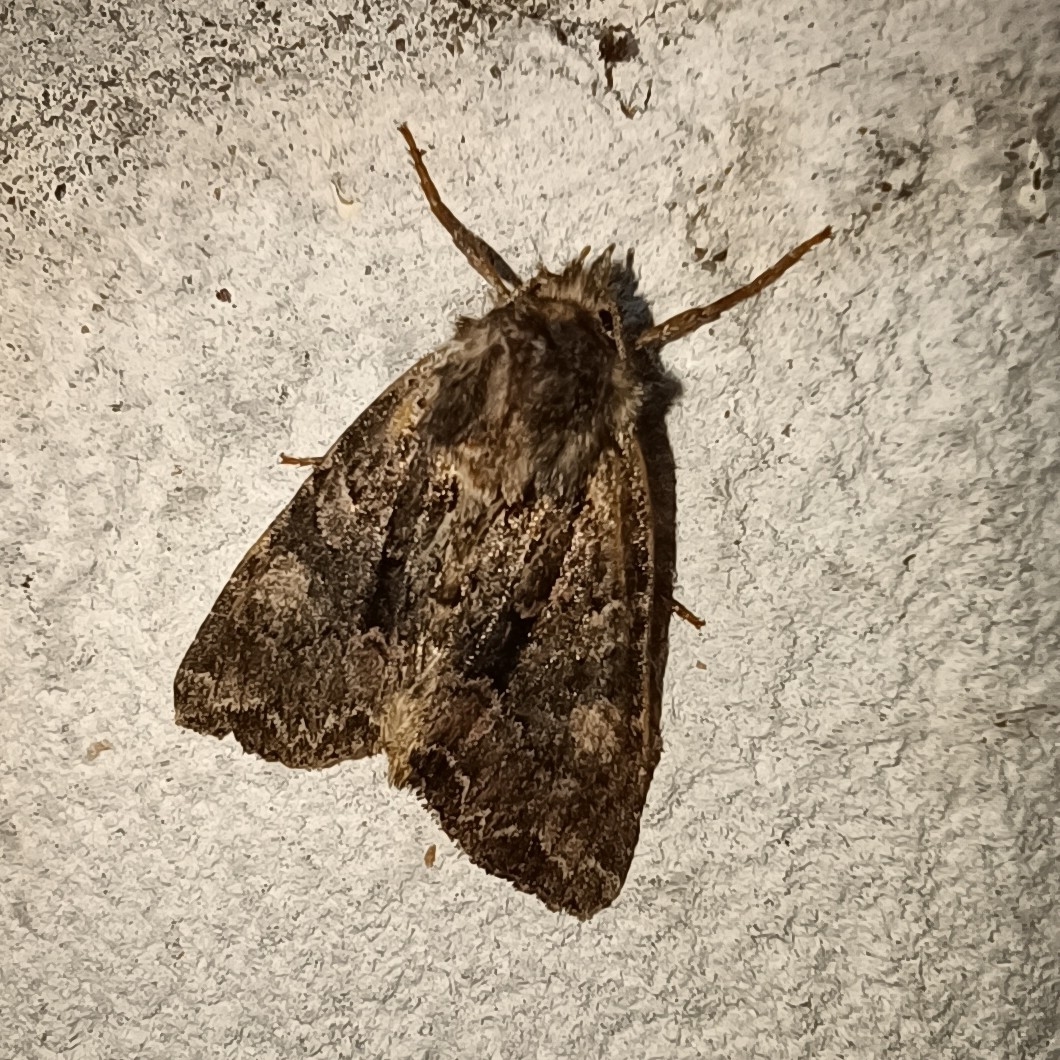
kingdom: Animalia
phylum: Arthropoda
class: Insecta
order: Lepidoptera
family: Noctuidae
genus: Mniotype
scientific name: Mniotype satura
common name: Beautiful arches
